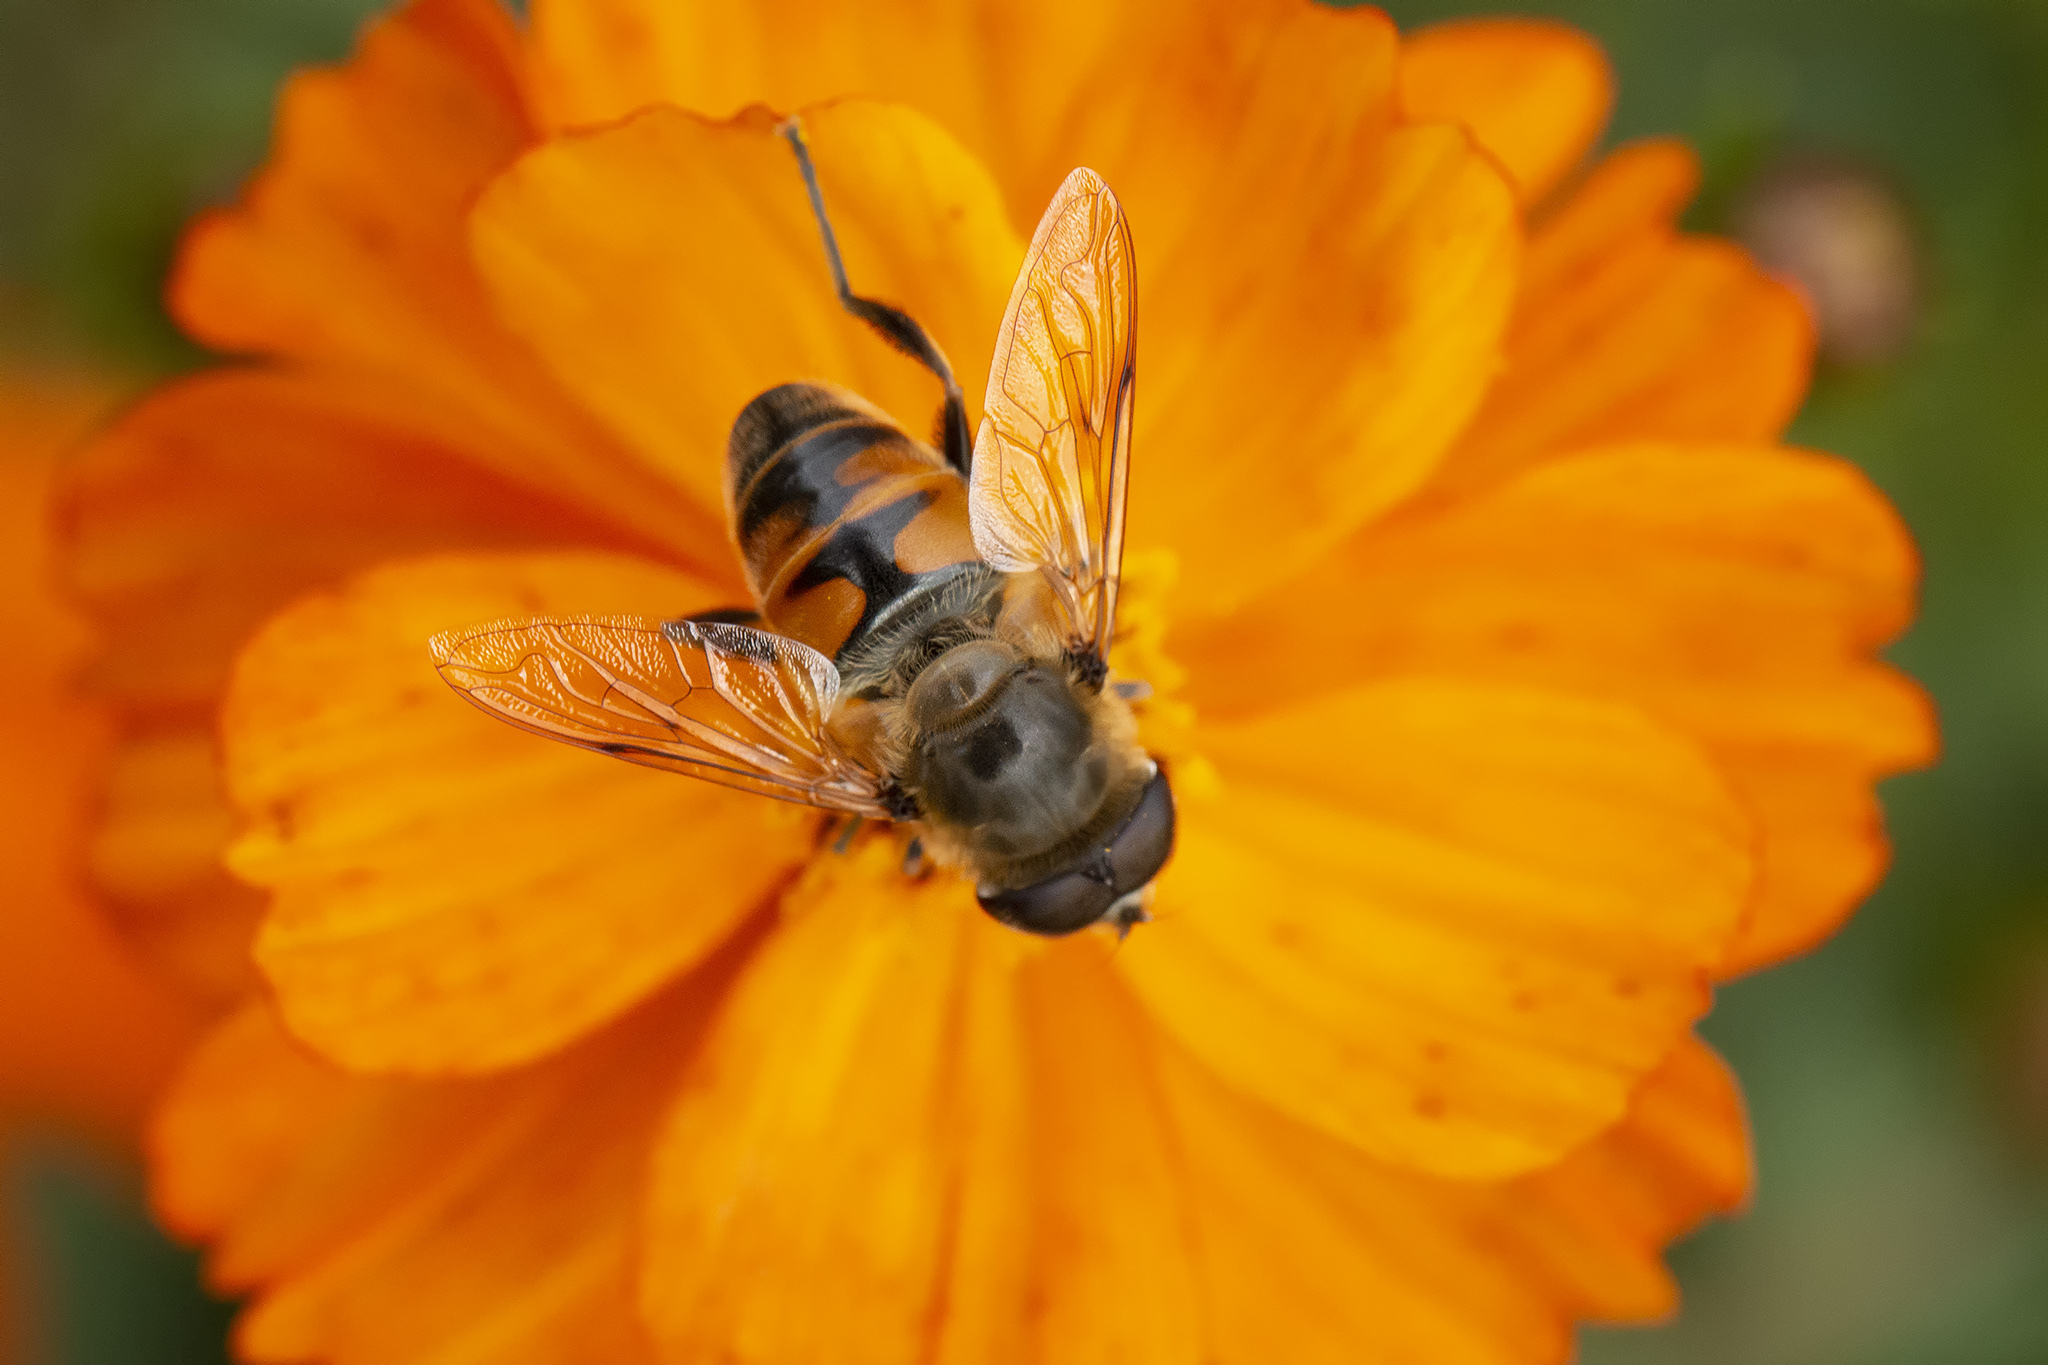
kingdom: Animalia
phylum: Arthropoda
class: Insecta
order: Diptera
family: Syrphidae
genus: Eristalis
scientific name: Eristalis tenax
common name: Drone fly
